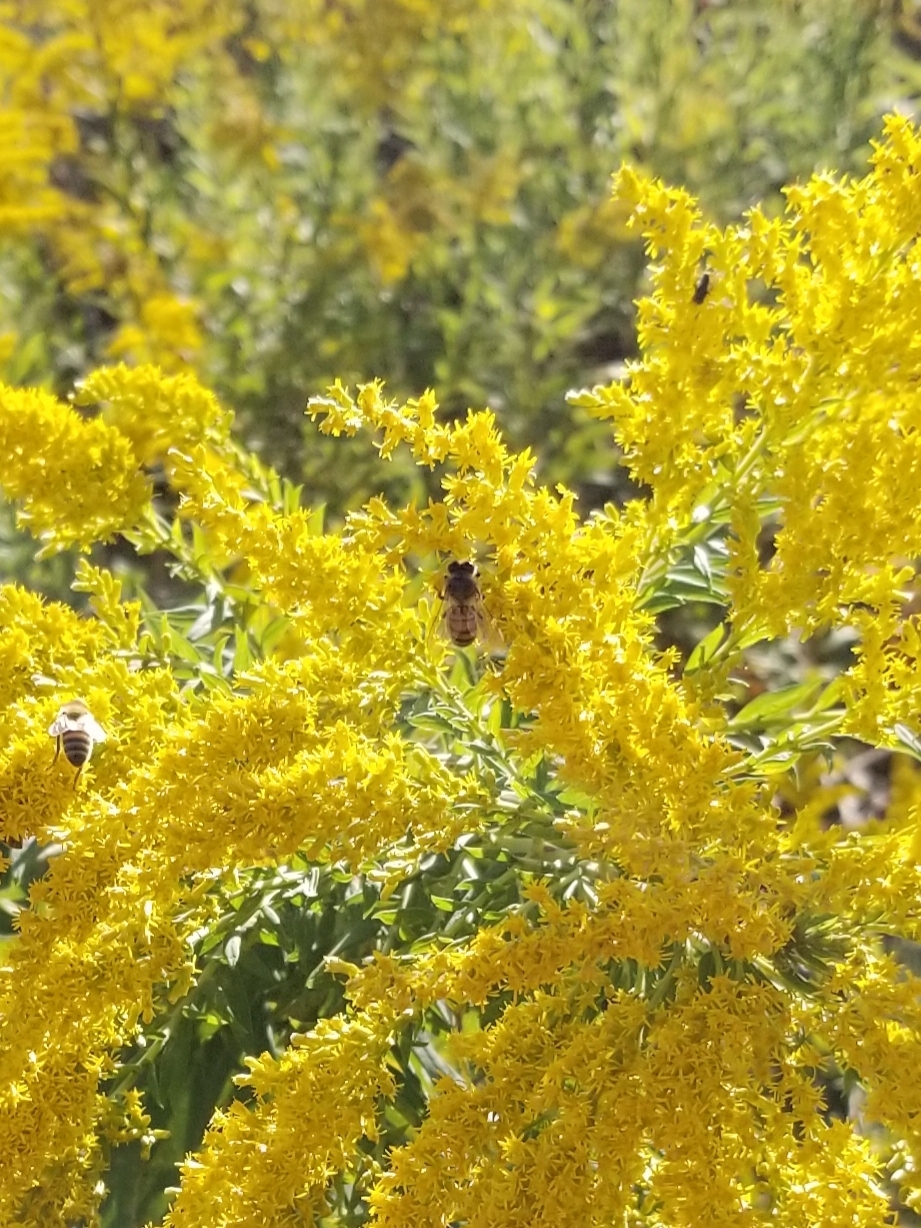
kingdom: Animalia
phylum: Arthropoda
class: Insecta
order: Hymenoptera
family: Apidae
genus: Apis
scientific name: Apis mellifera
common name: Honey bee
